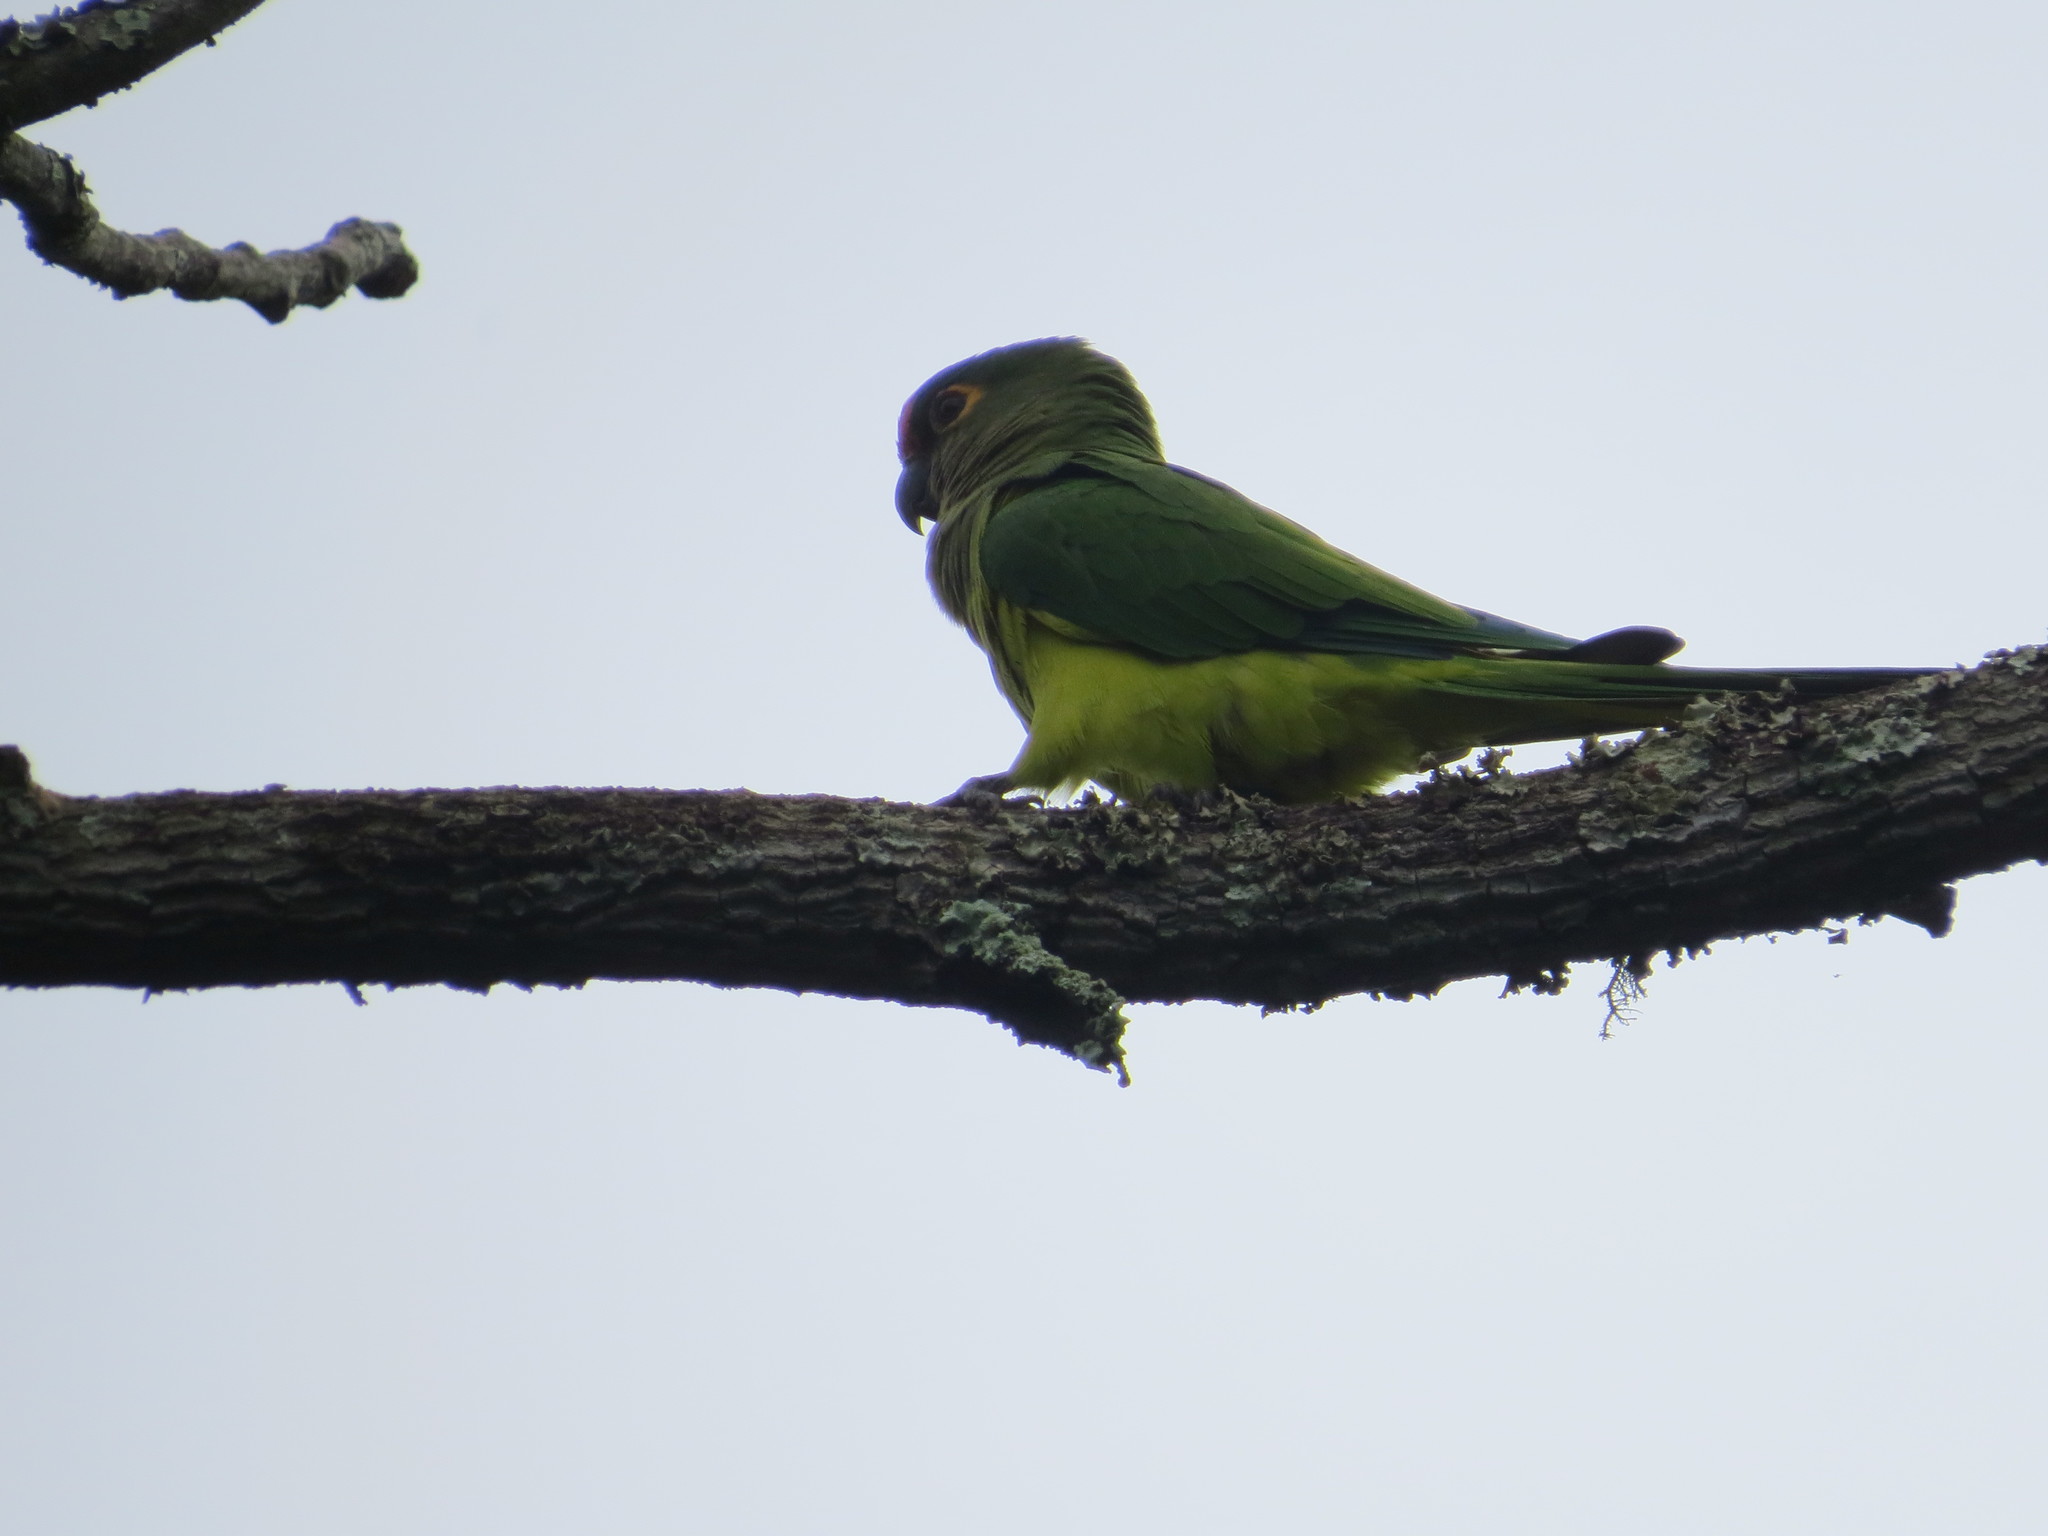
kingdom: Animalia
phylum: Chordata
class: Aves
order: Psittaciformes
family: Psittacidae
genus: Aratinga
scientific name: Aratinga aurea
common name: Peach-fronted parakeet
